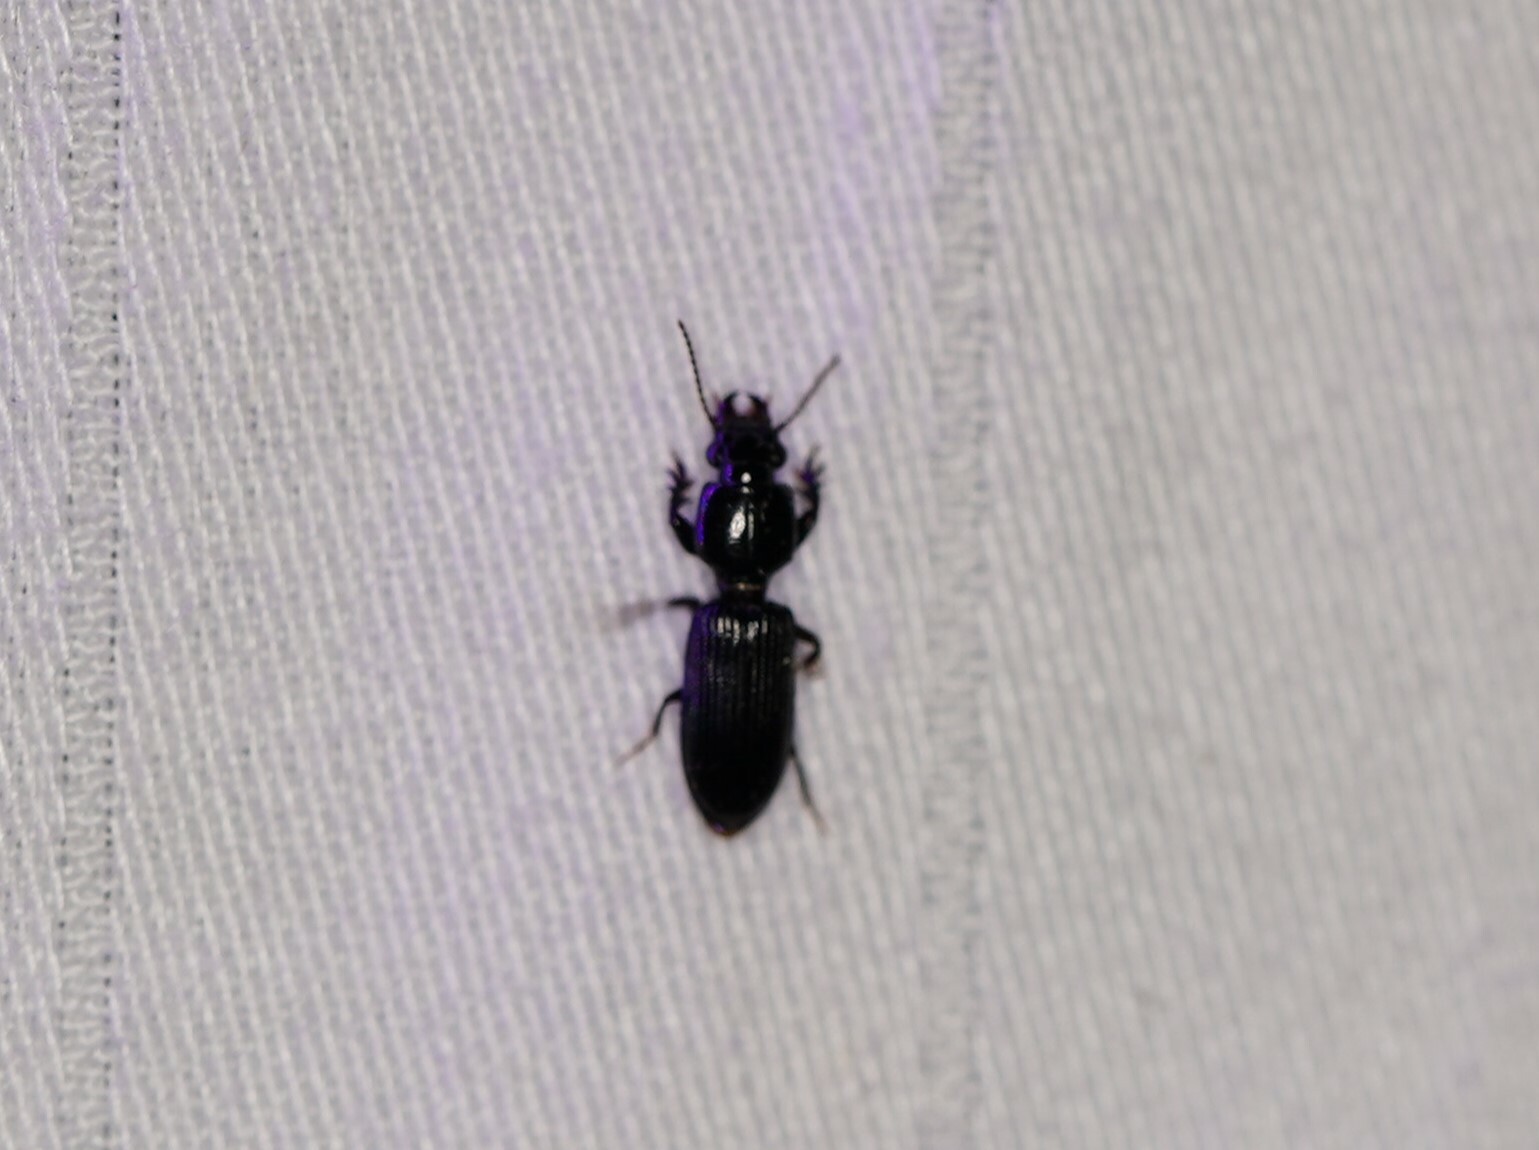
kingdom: Animalia
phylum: Arthropoda
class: Insecta
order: Coleoptera
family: Carabidae
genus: Semiclivina
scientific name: Semiclivina dentipes
